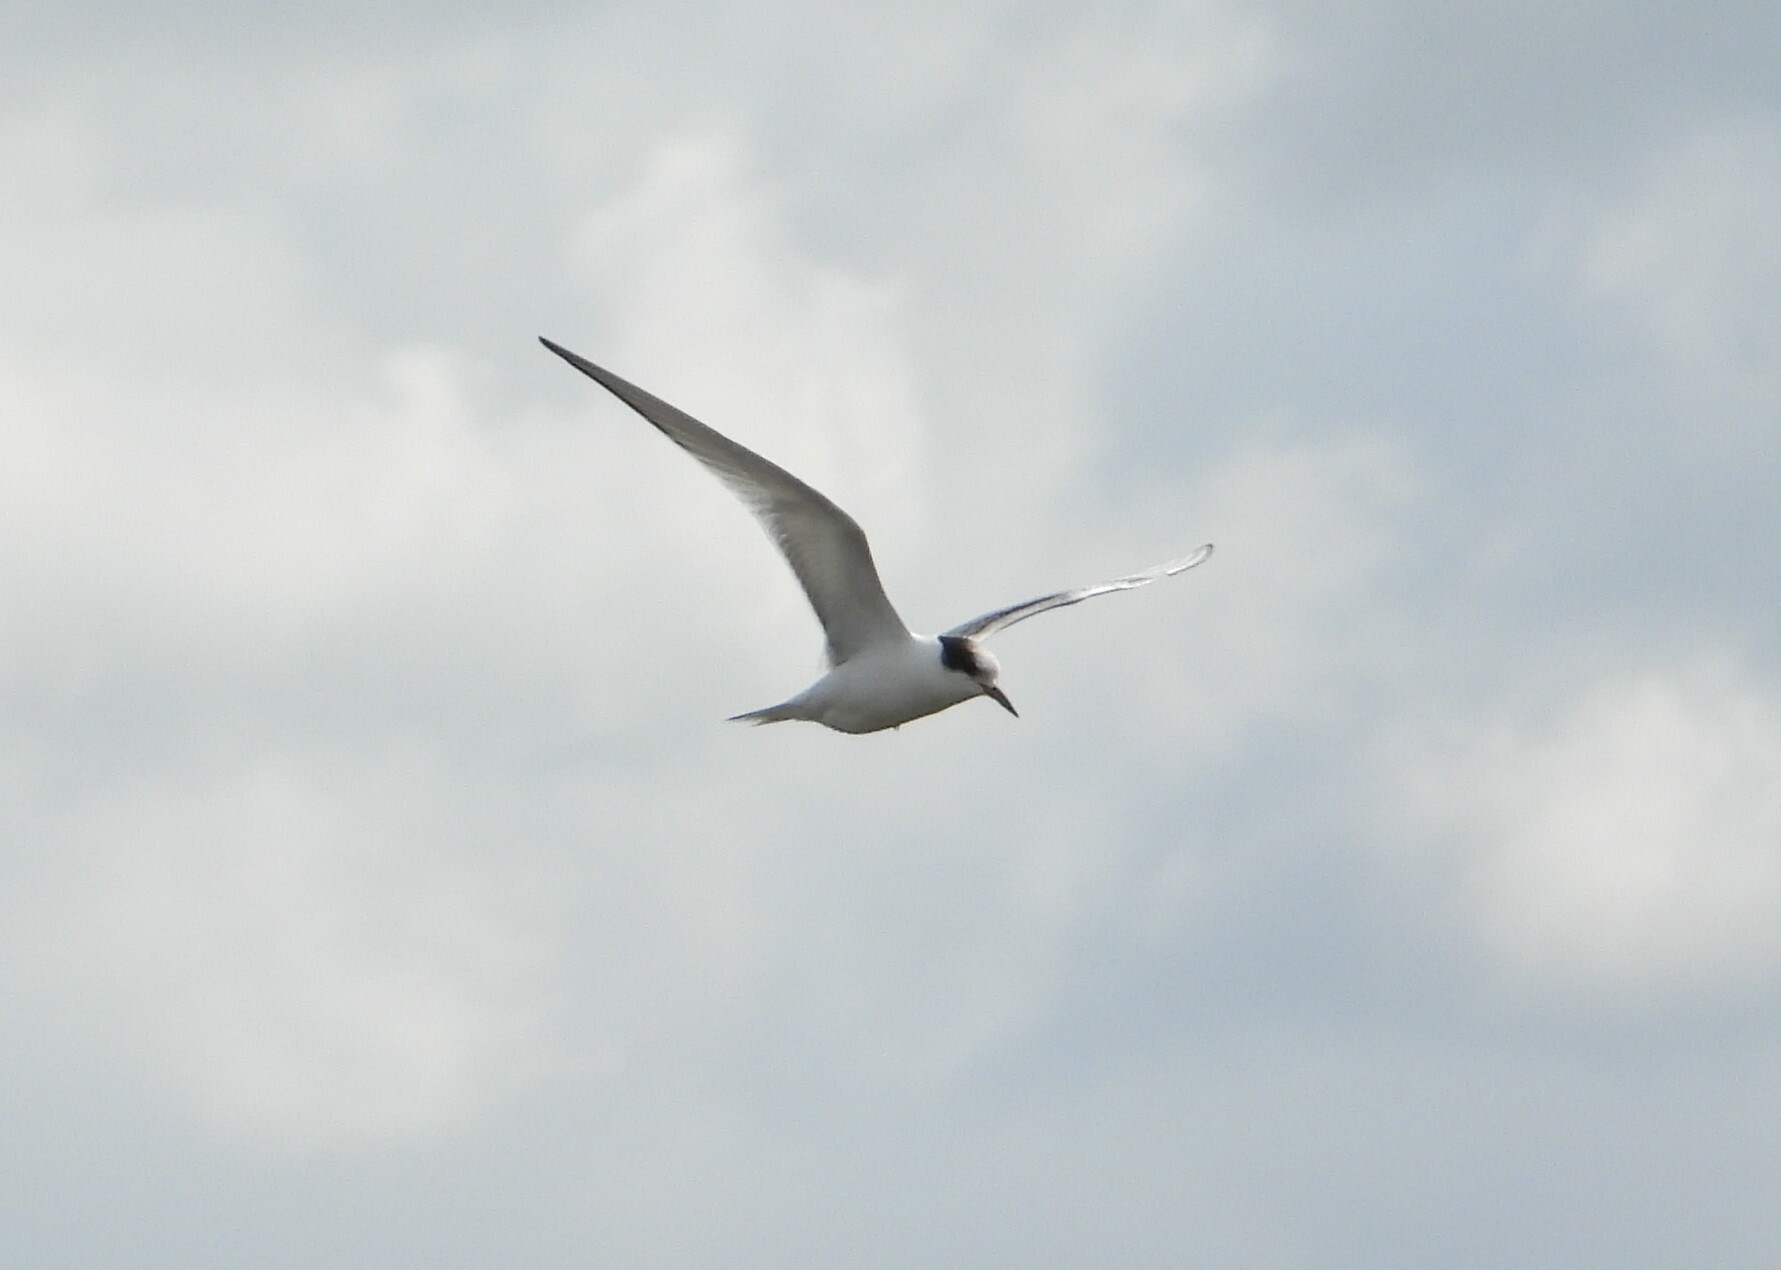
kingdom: Animalia
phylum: Chordata
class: Aves
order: Charadriiformes
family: Laridae
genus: Sterna
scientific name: Sterna hirundo
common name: Common tern
